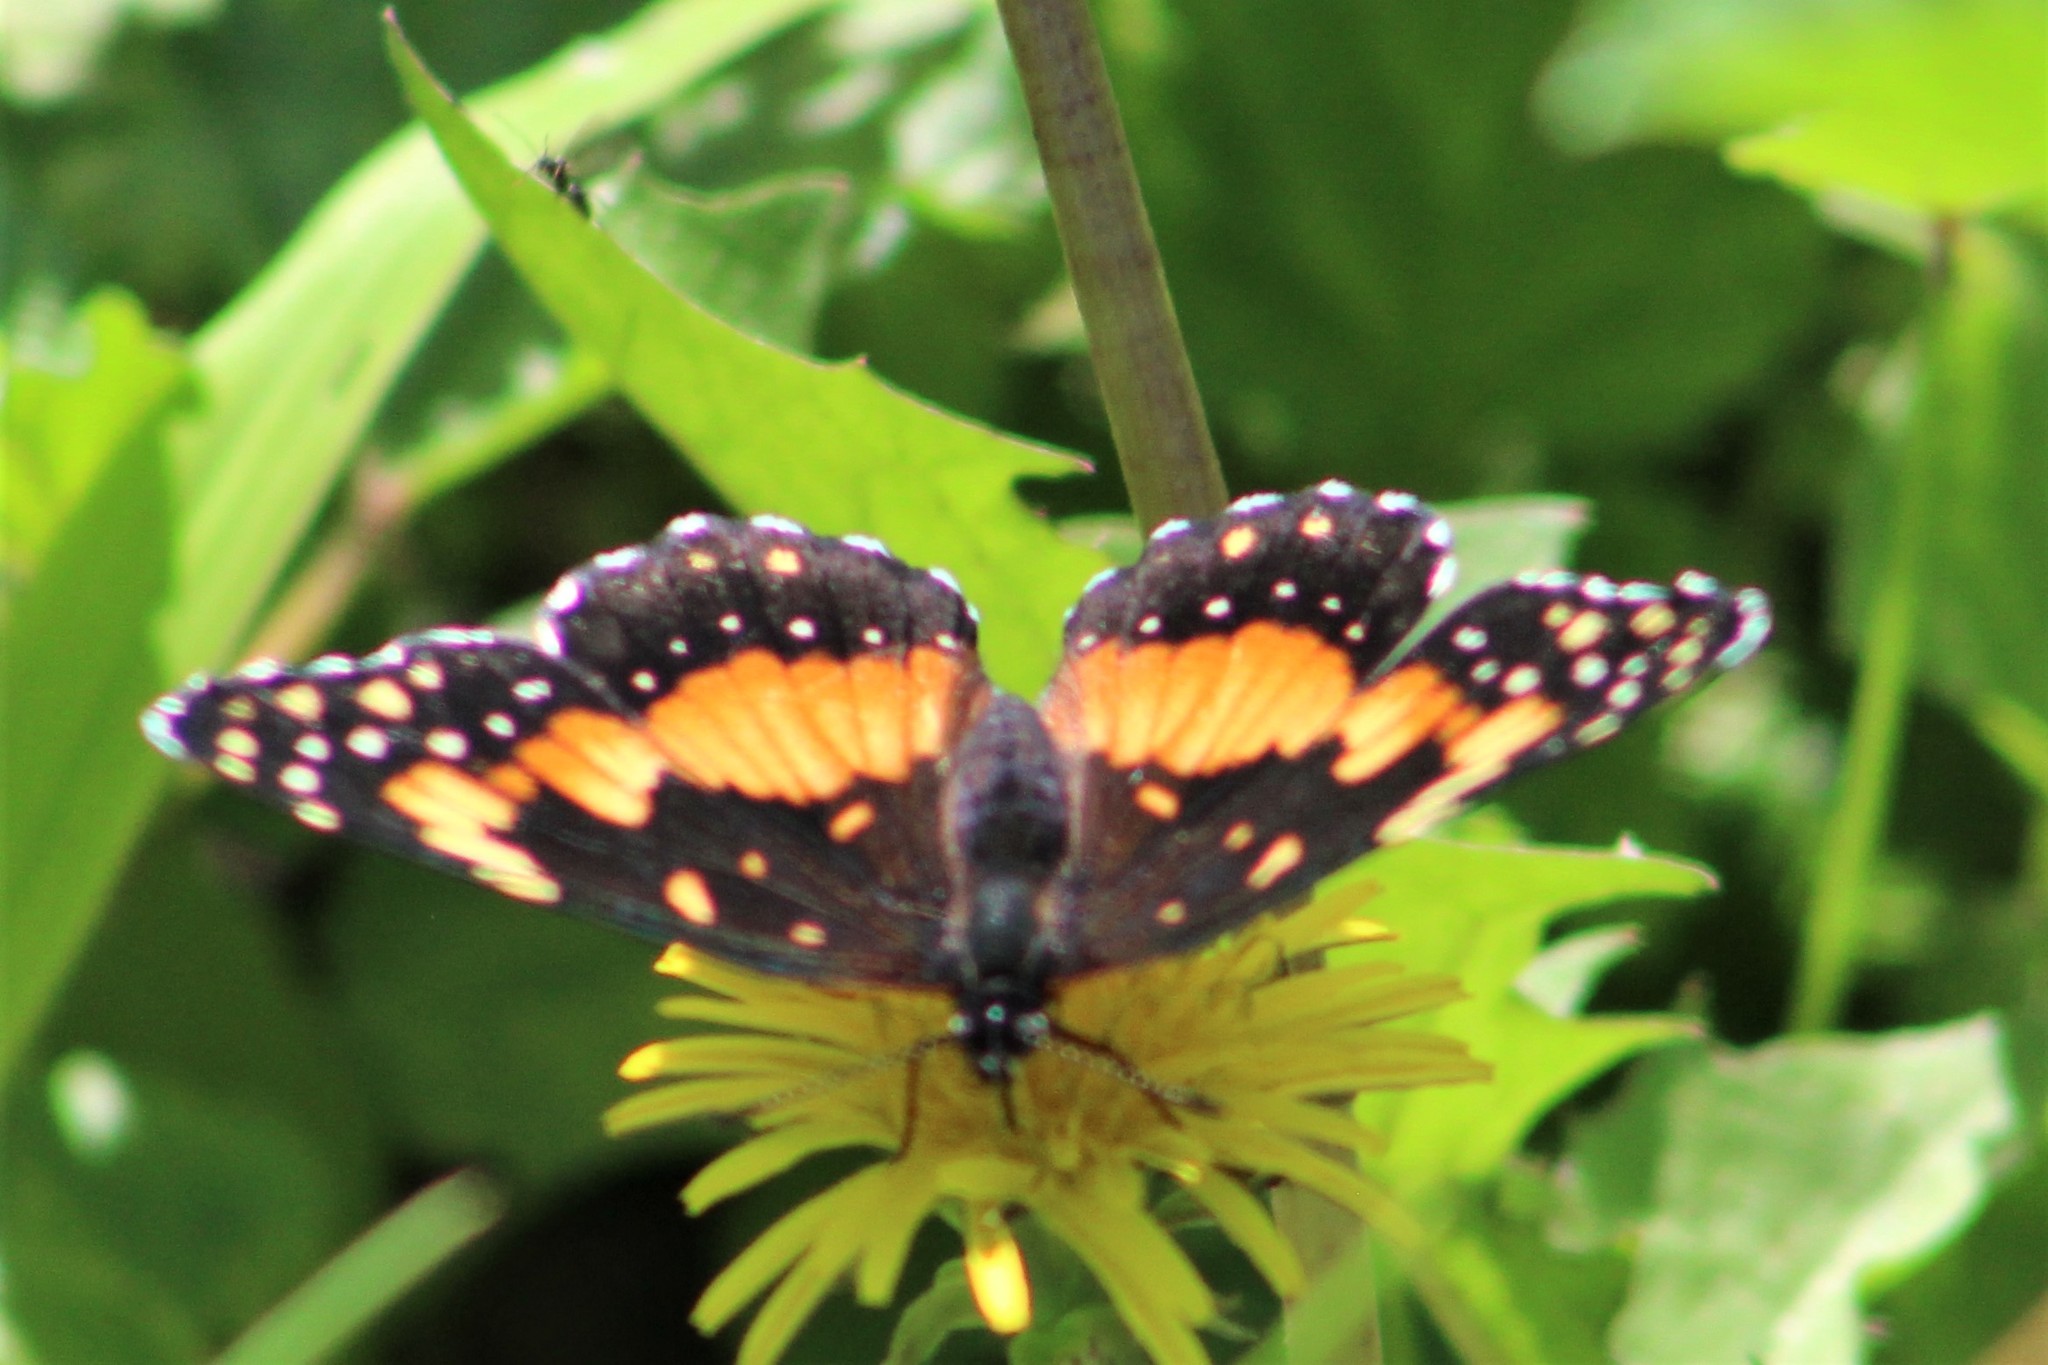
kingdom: Animalia
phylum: Arthropoda
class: Insecta
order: Lepidoptera
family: Nymphalidae
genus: Chlosyne
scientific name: Chlosyne lacinia
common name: Bordered patch
